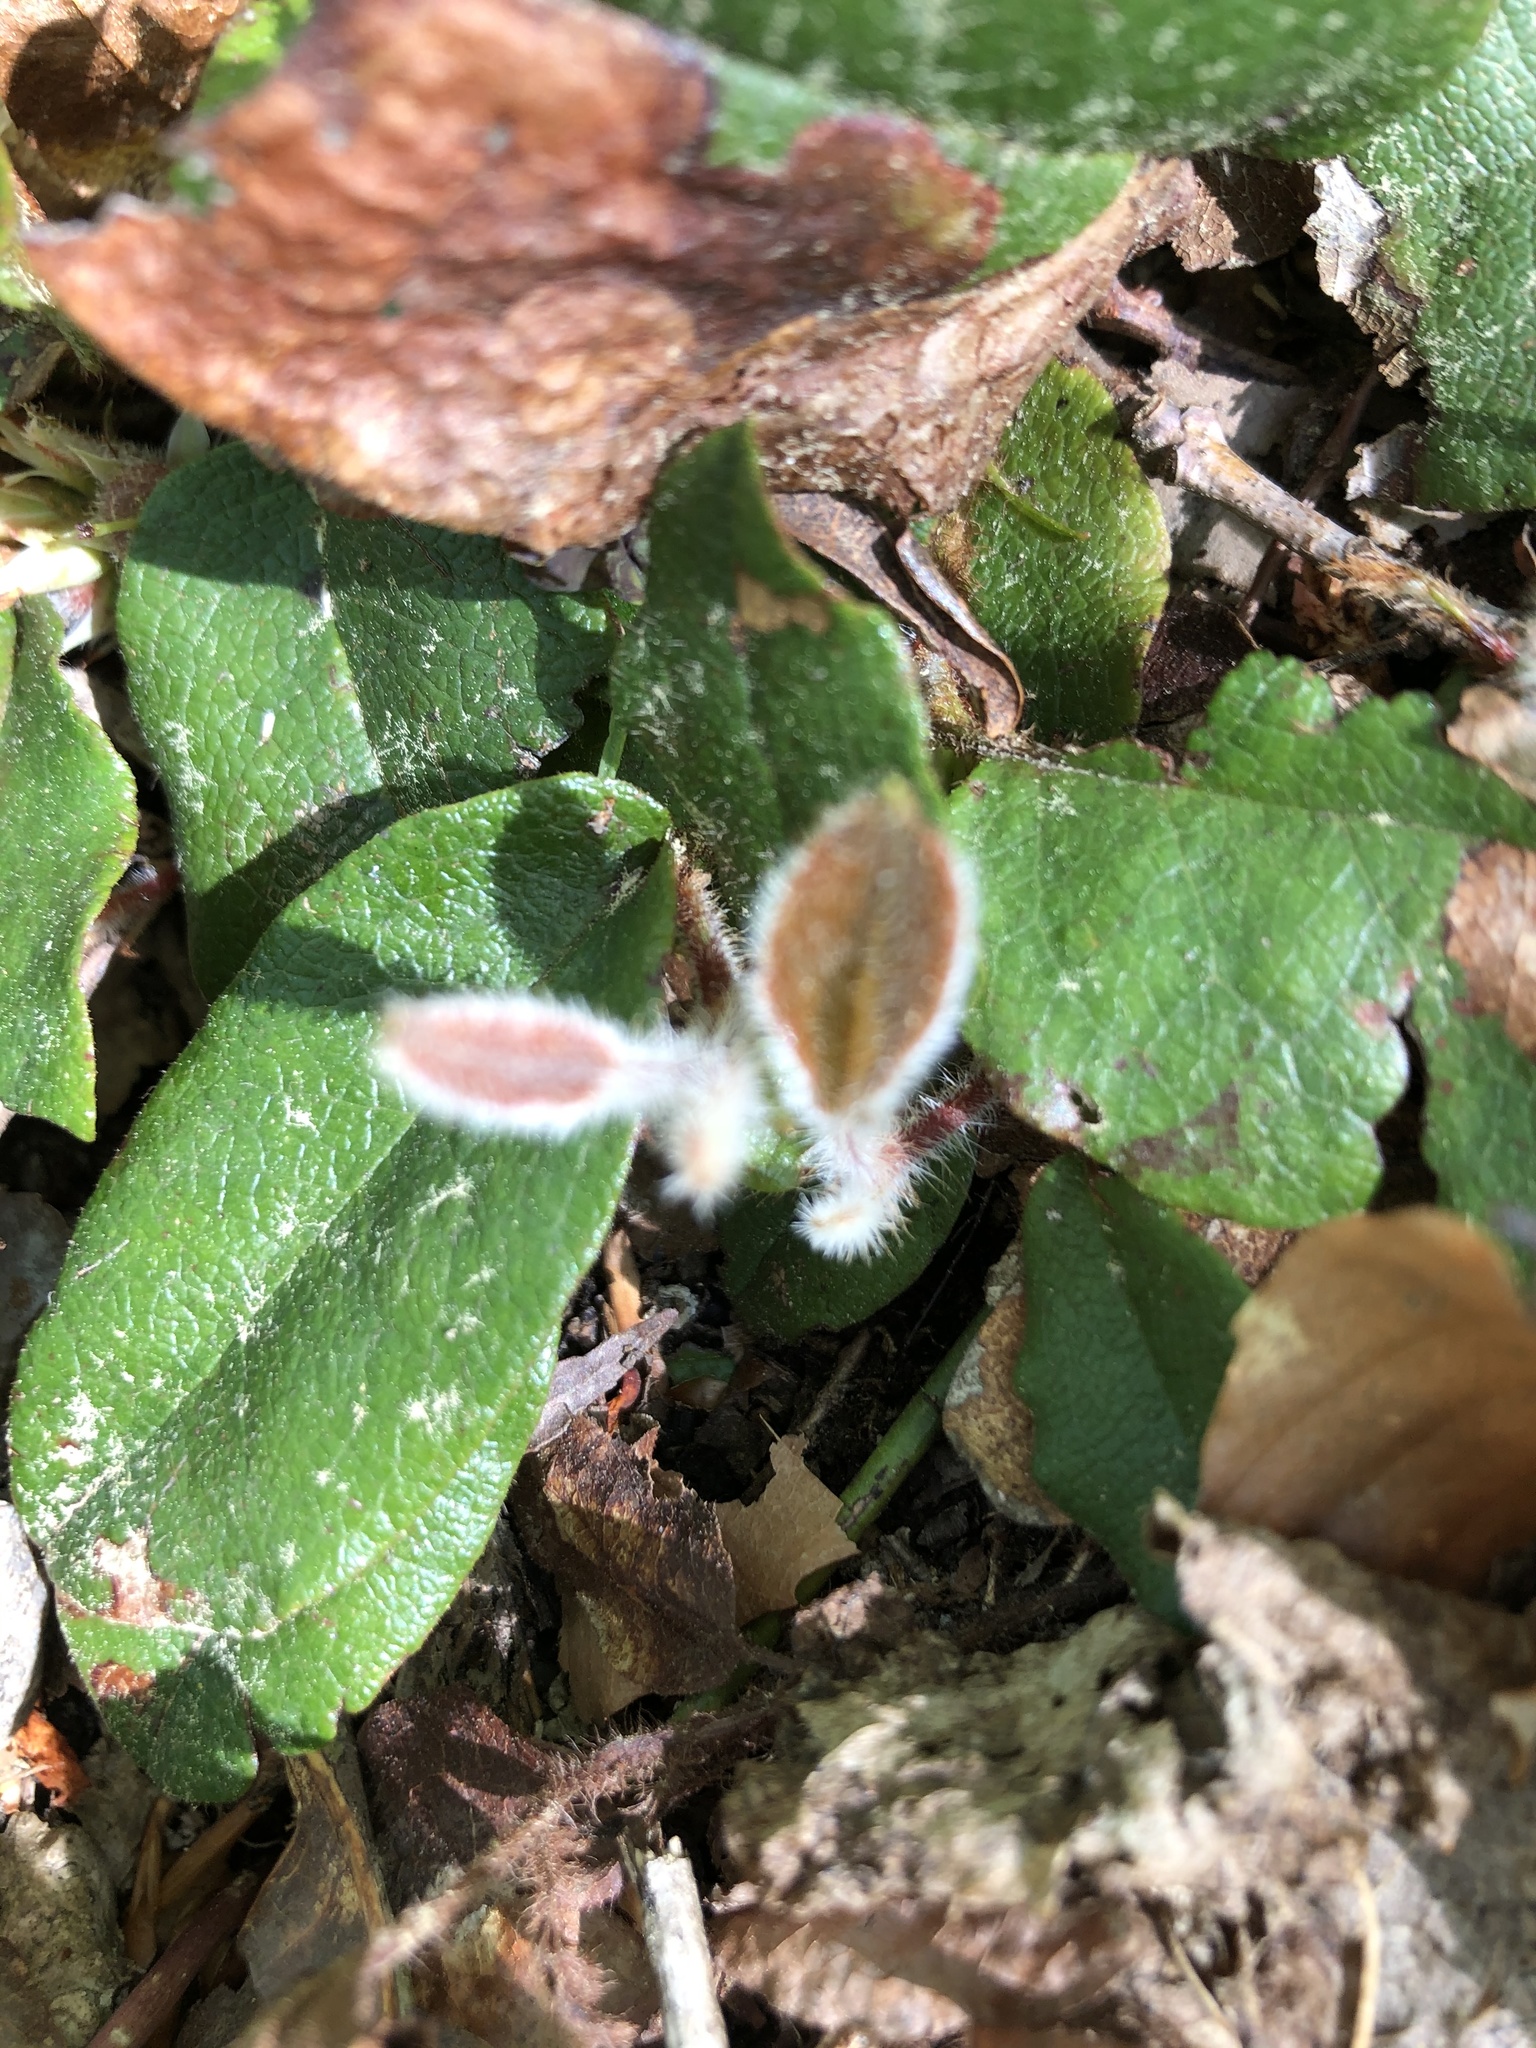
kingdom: Plantae
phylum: Tracheophyta
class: Magnoliopsida
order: Ericales
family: Ericaceae
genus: Epigaea
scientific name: Epigaea repens
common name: Gravelroot
